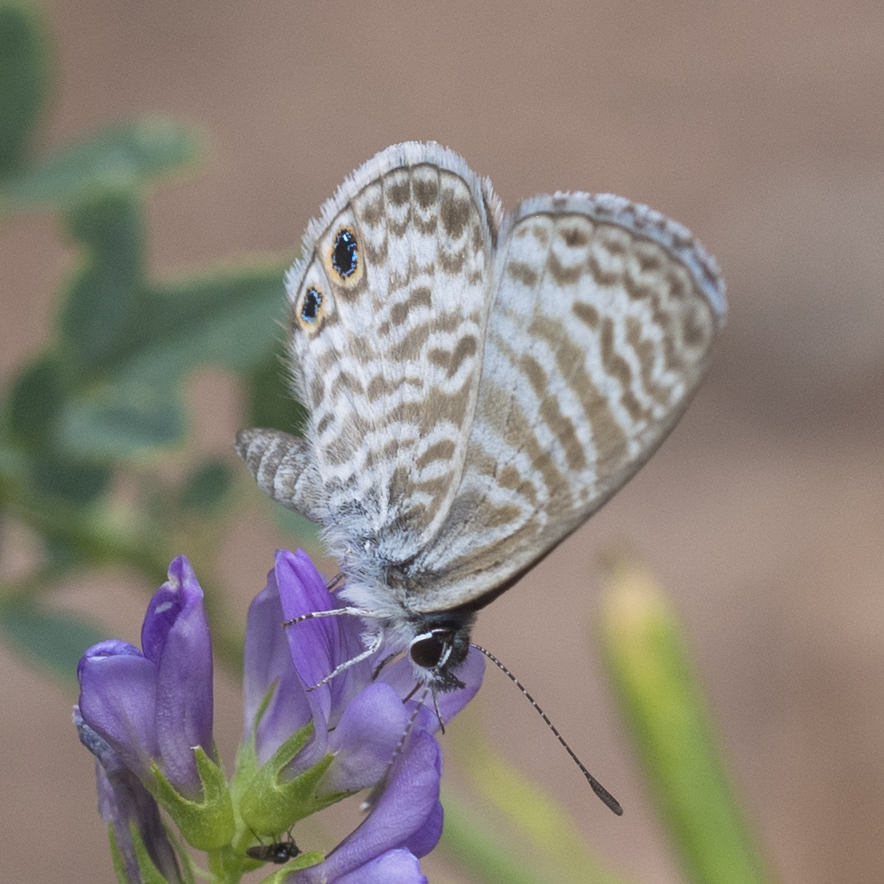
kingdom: Animalia
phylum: Arthropoda
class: Insecta
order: Lepidoptera
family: Lycaenidae
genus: Leptotes
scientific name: Leptotes marina
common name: Marine blue
